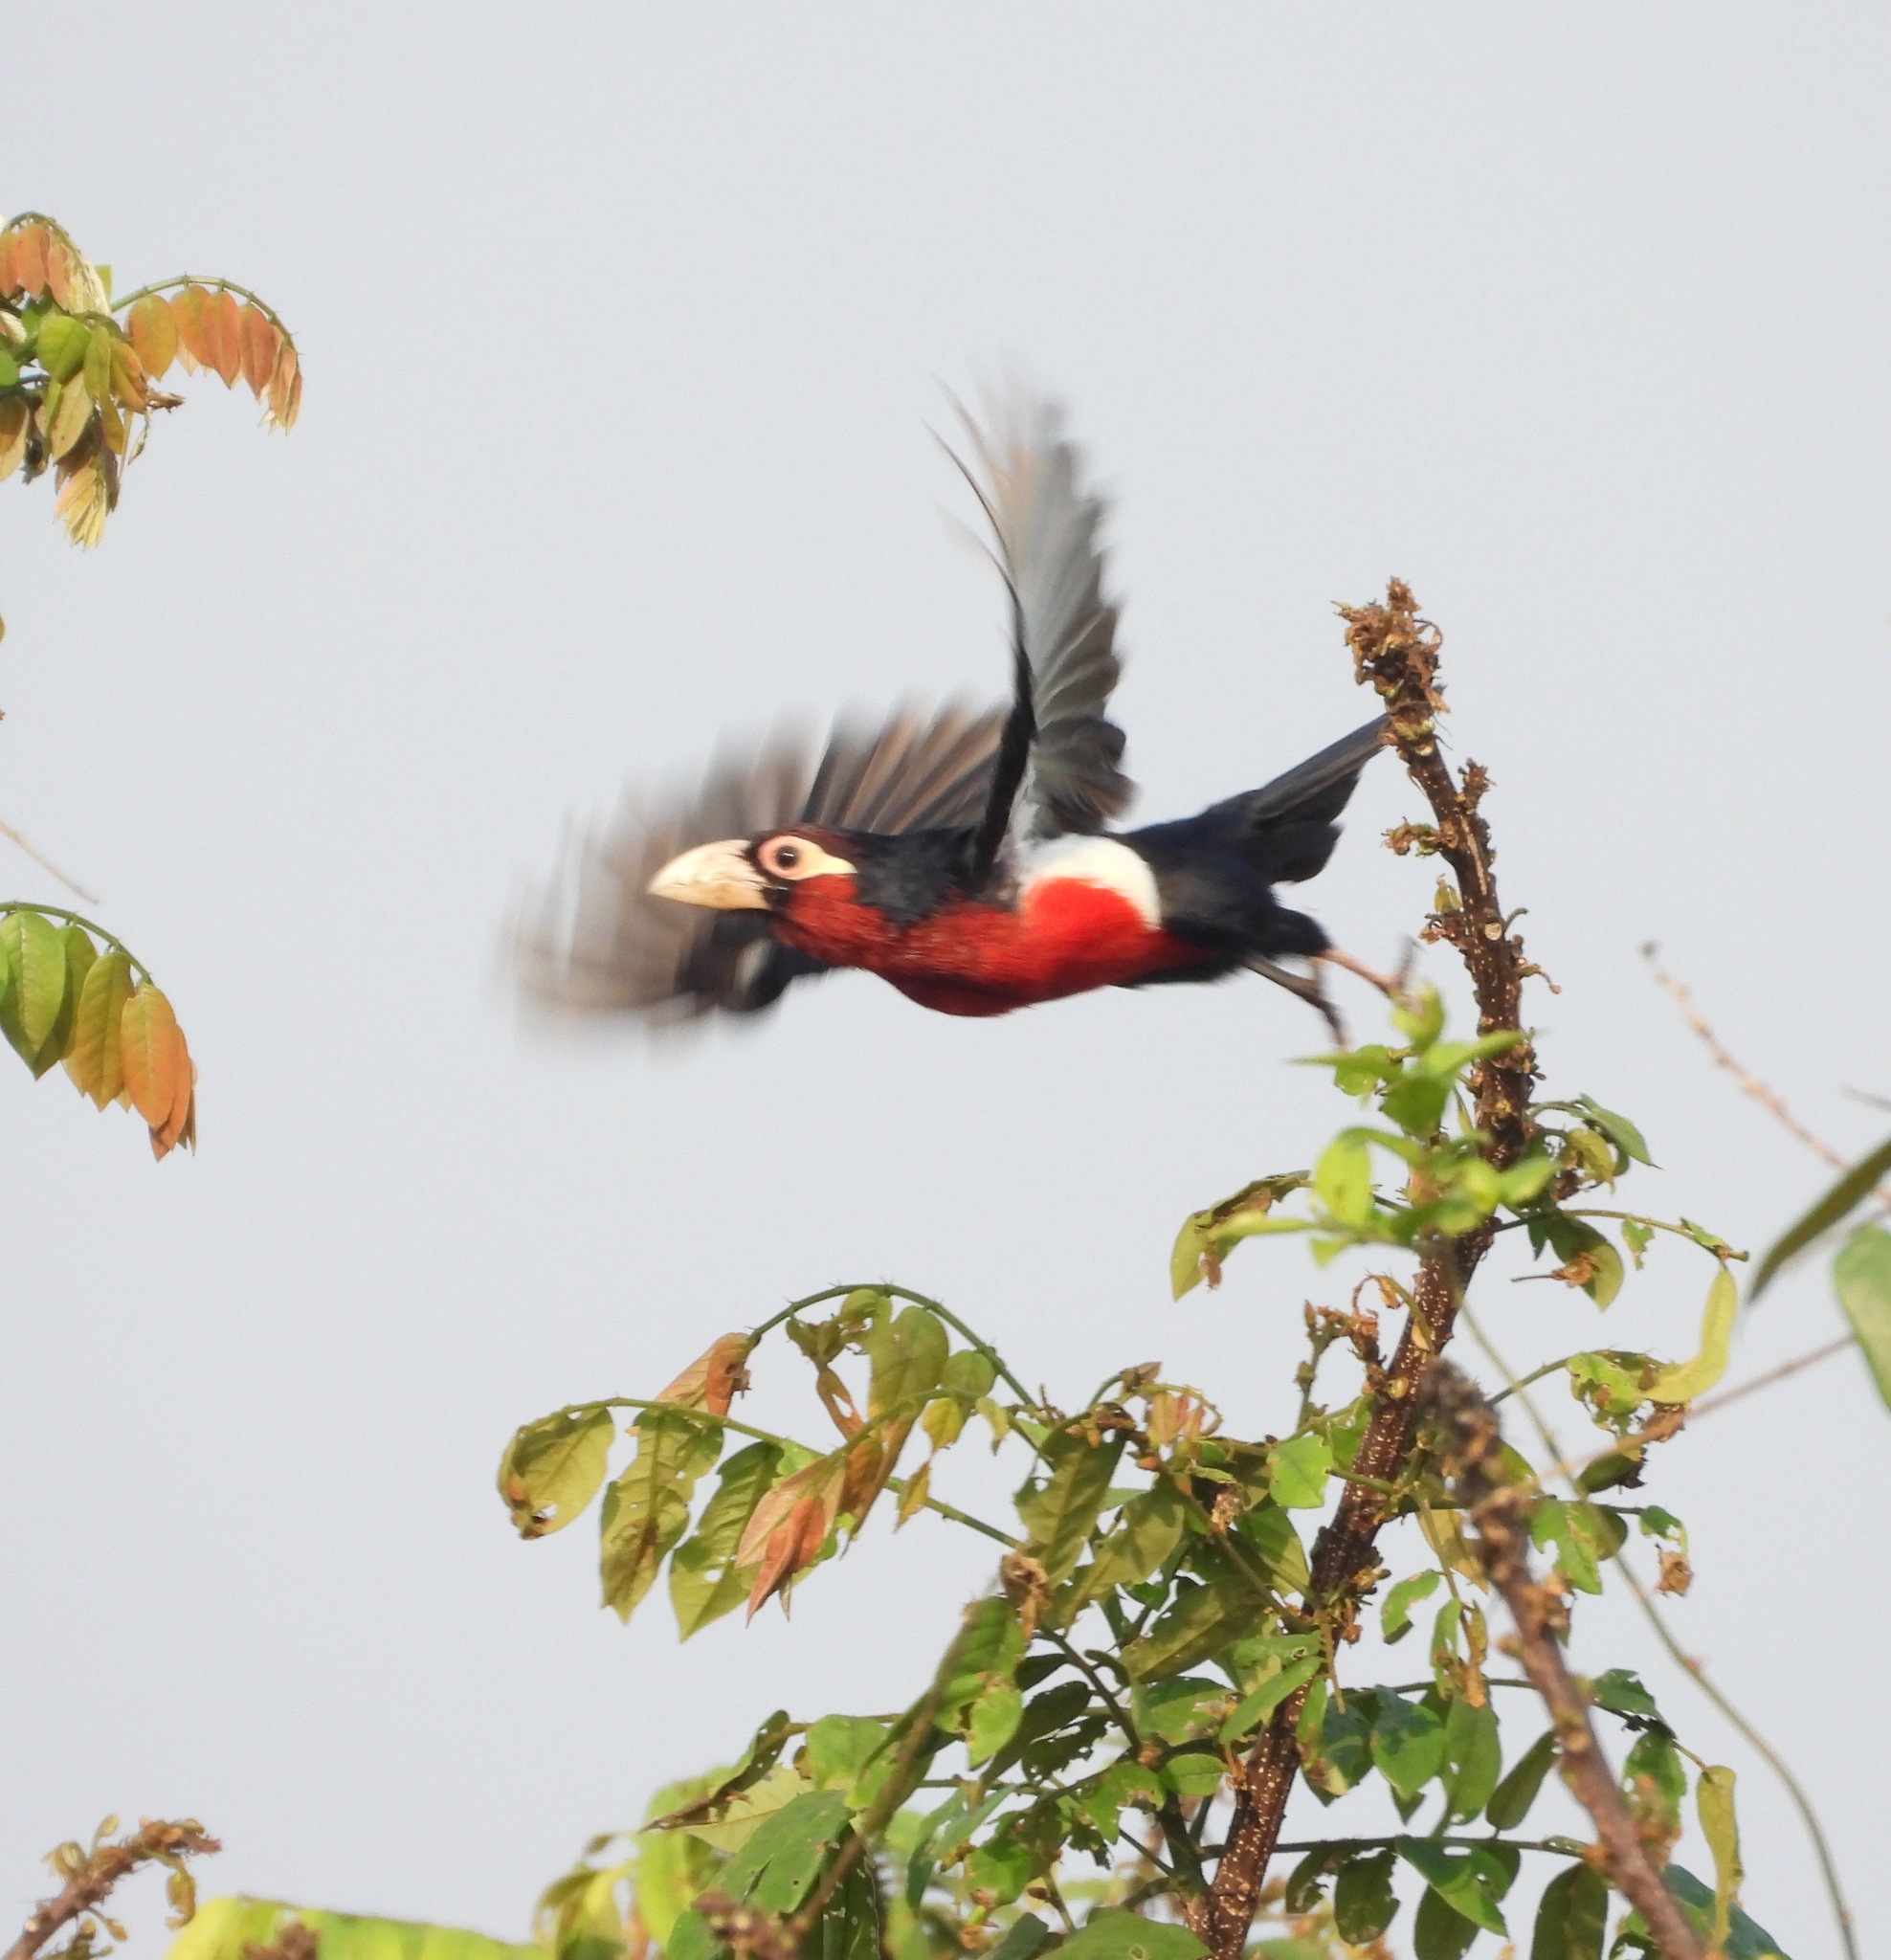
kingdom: Animalia
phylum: Chordata
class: Aves
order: Piciformes
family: Lybiidae
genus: Lybius
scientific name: Lybius bidentatus
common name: Double-toothed barbet
